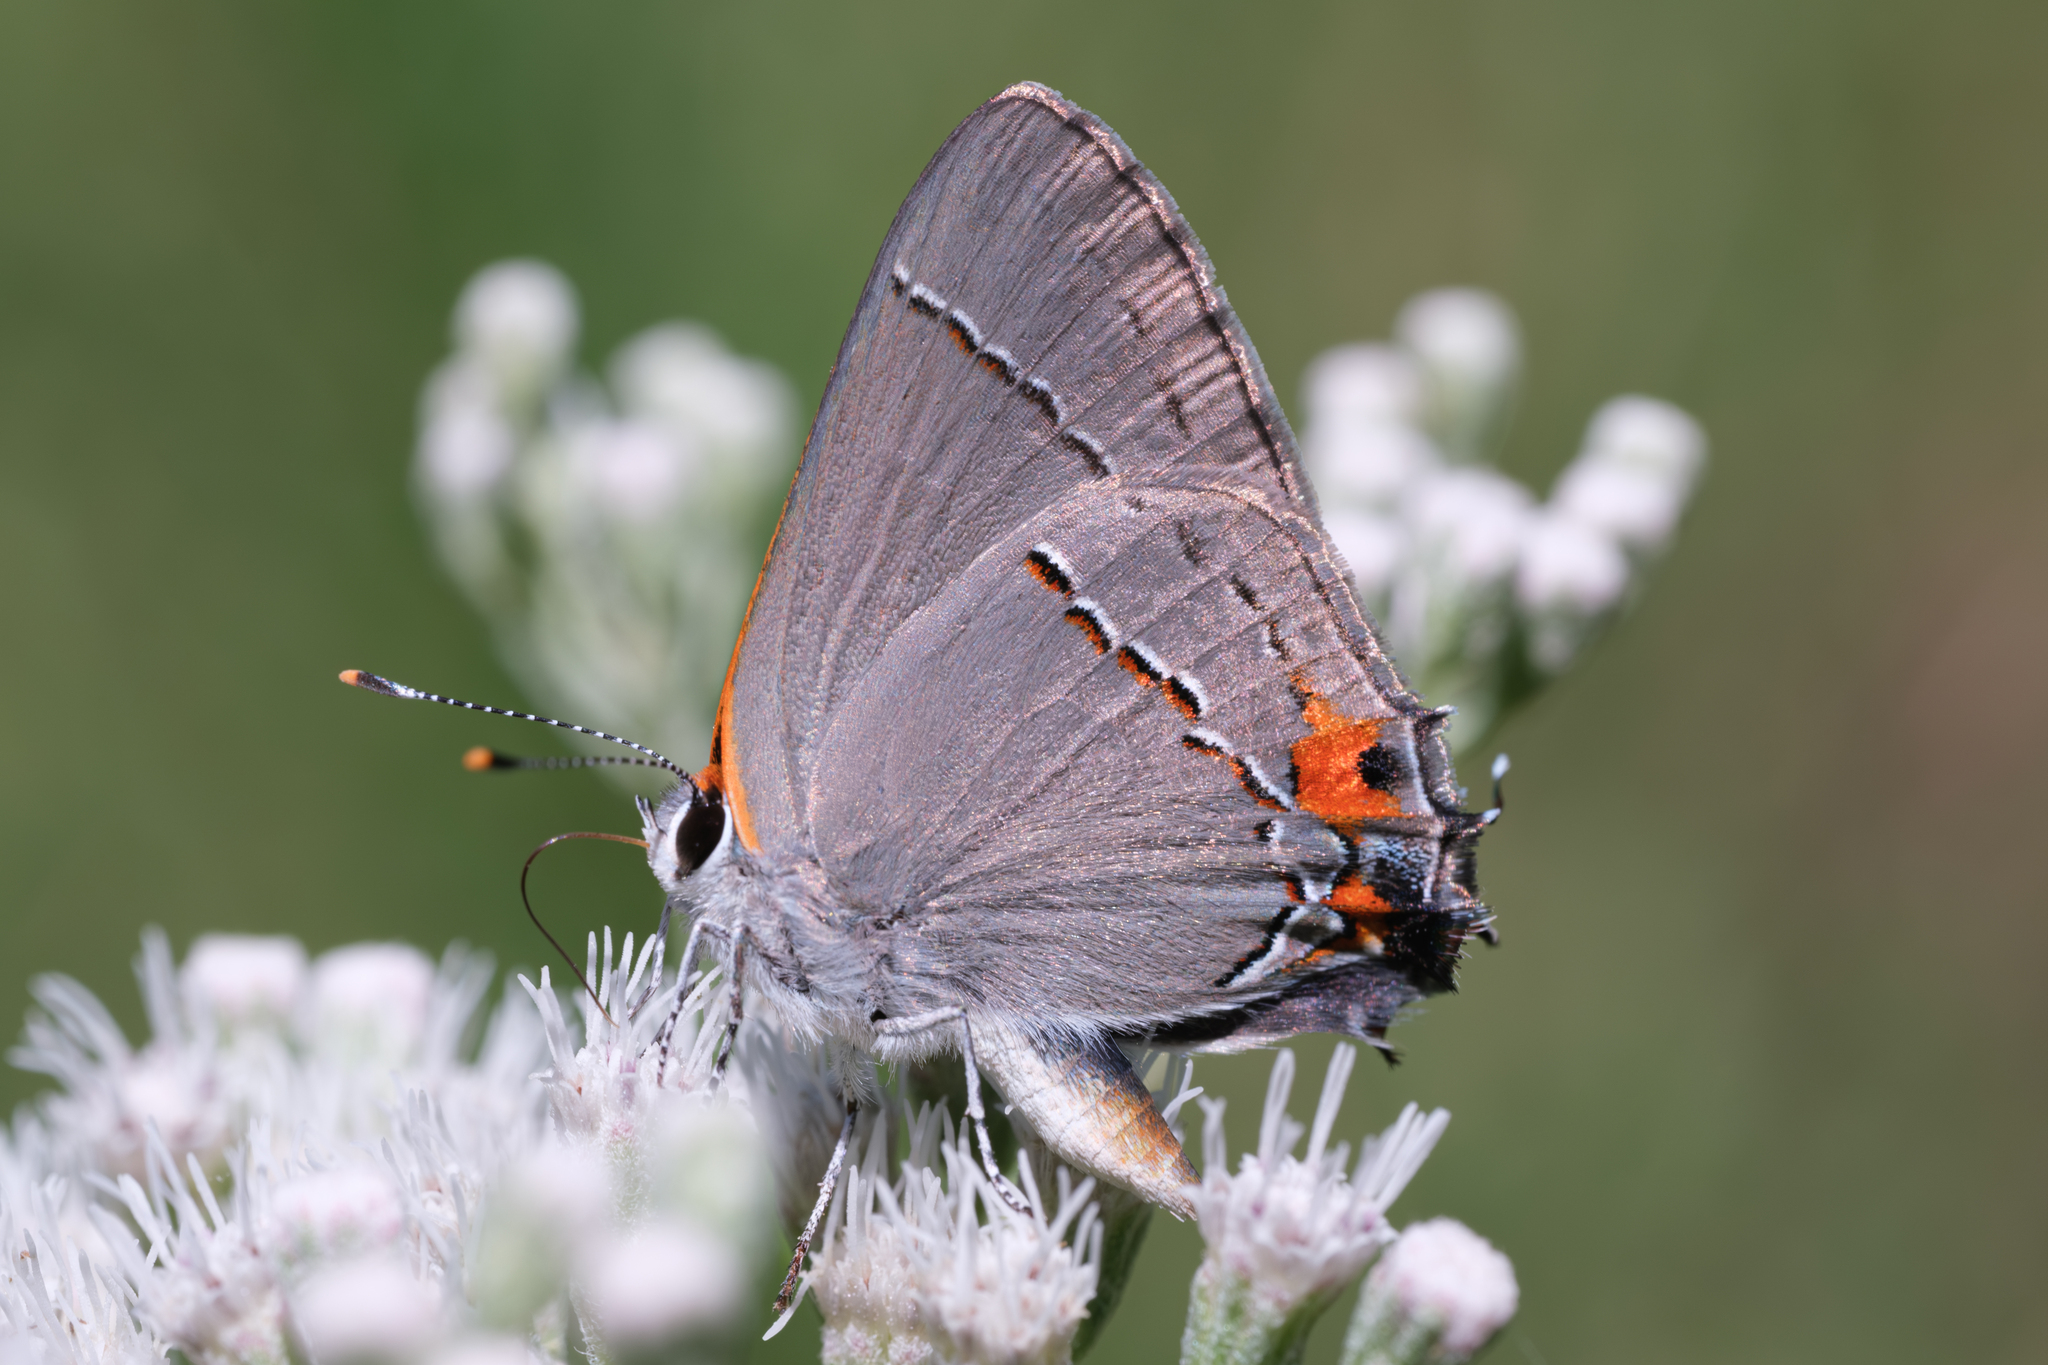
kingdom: Animalia
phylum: Arthropoda
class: Insecta
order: Lepidoptera
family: Lycaenidae
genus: Strymon
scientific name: Strymon melinus
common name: Gray hairstreak
